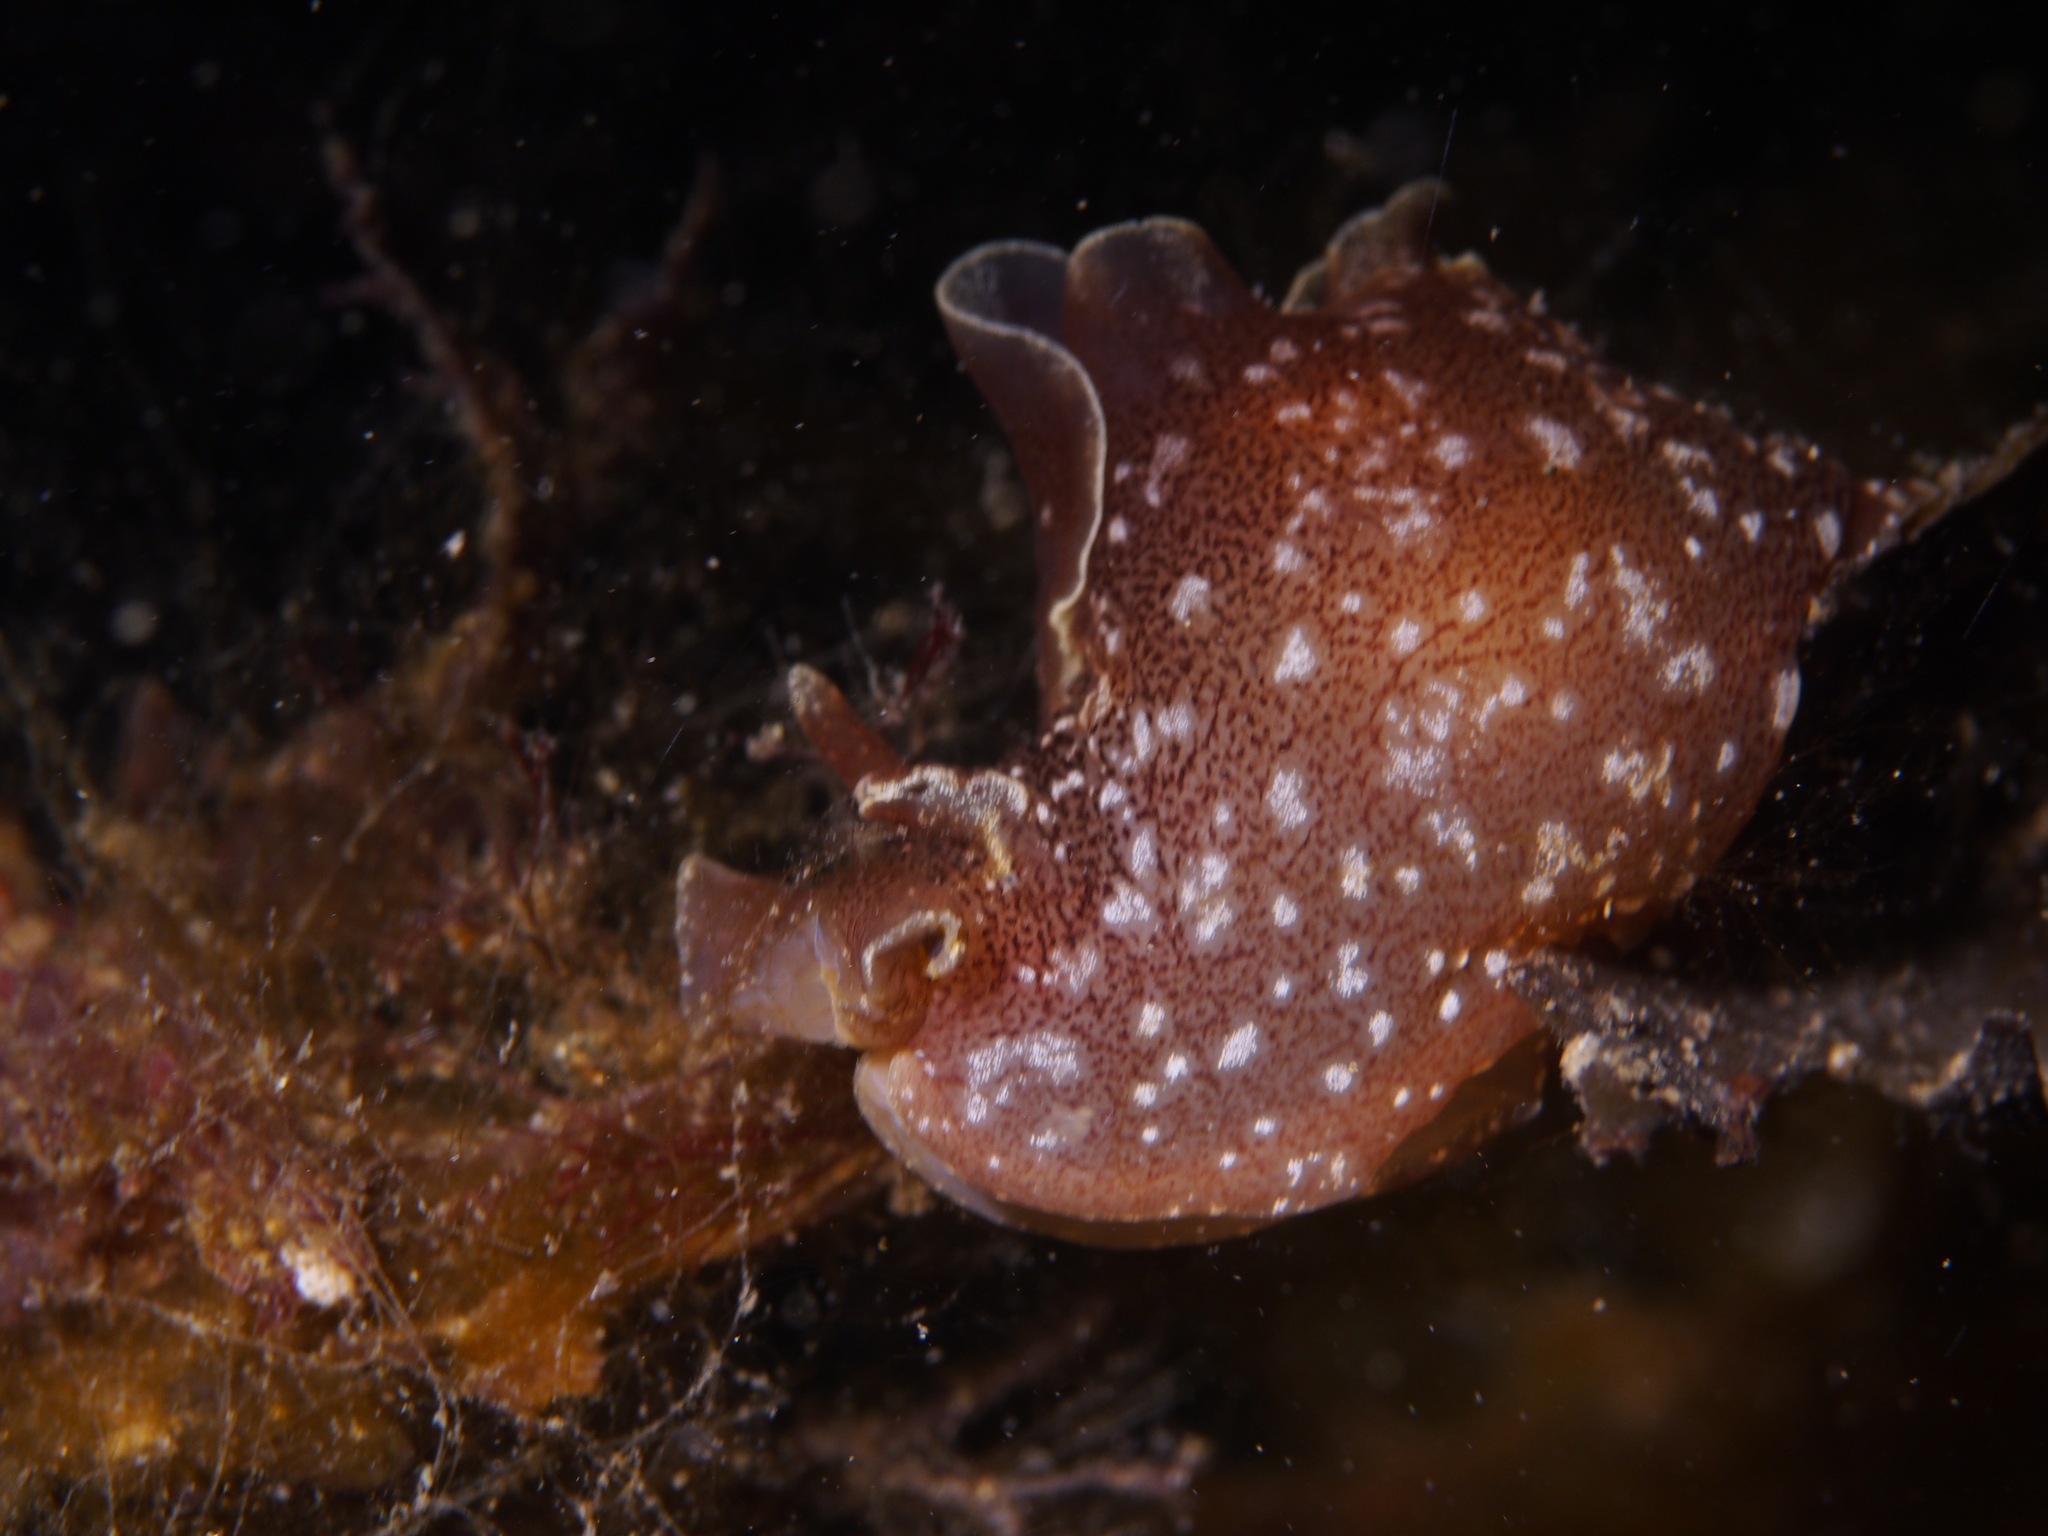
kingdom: Animalia
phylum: Mollusca
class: Gastropoda
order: Aplysiida
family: Aplysiidae
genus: Aplysia
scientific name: Aplysia punctata
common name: Common sea hare
